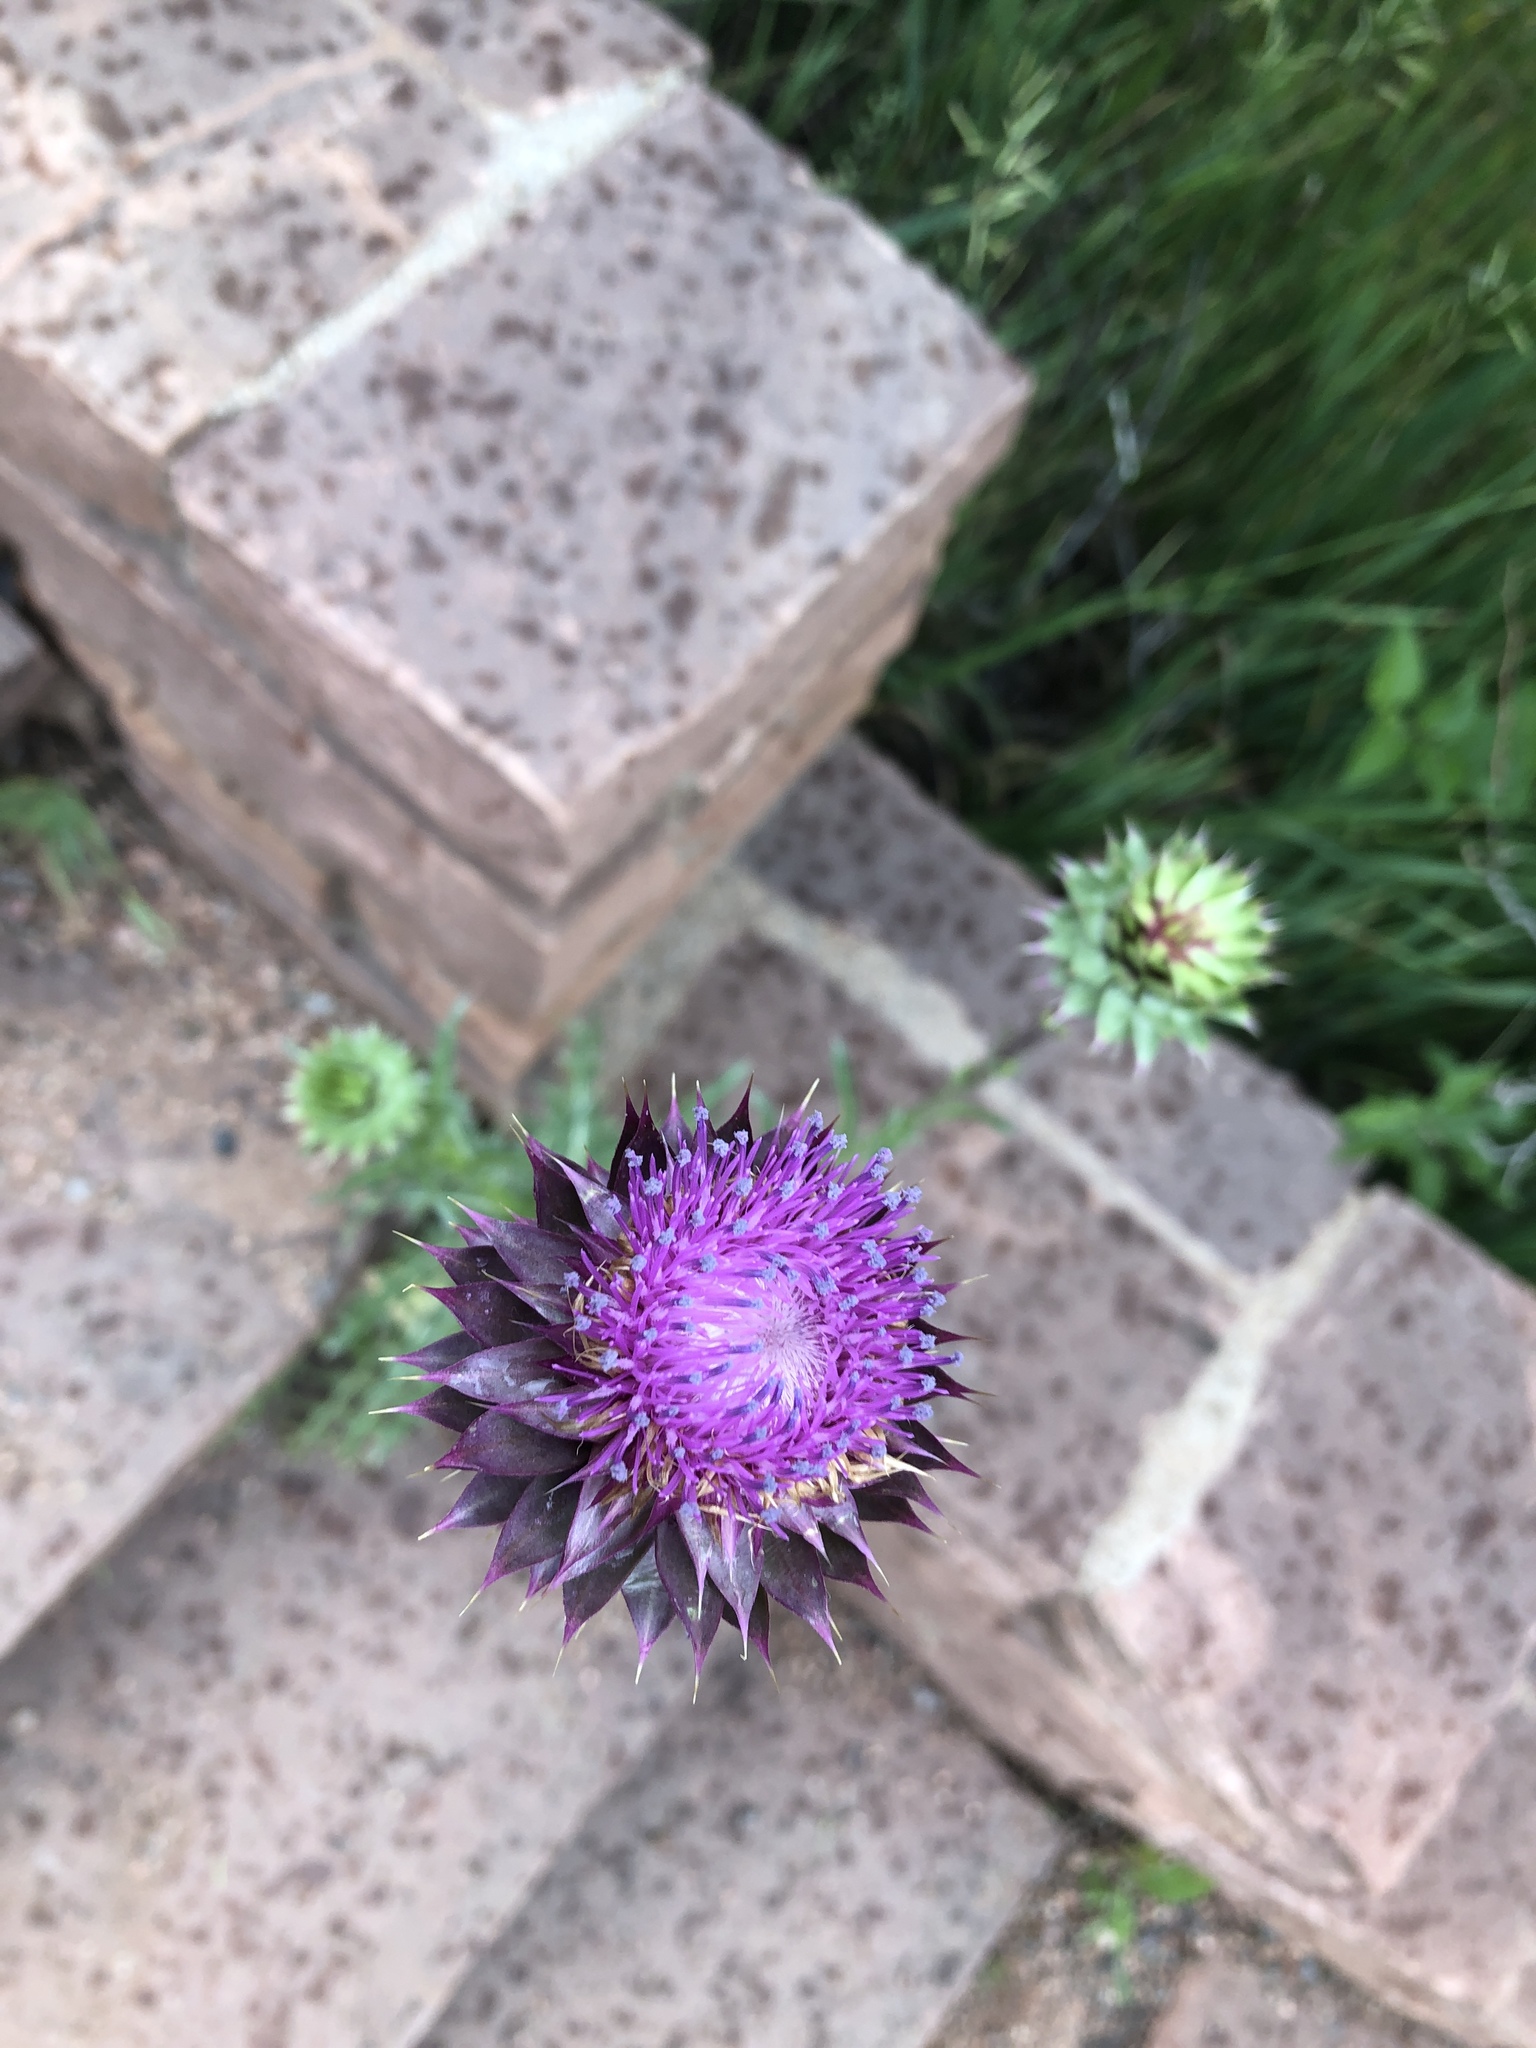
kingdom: Plantae
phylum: Tracheophyta
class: Magnoliopsida
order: Asterales
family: Asteraceae
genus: Carduus
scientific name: Carduus nutans
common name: Musk thistle
